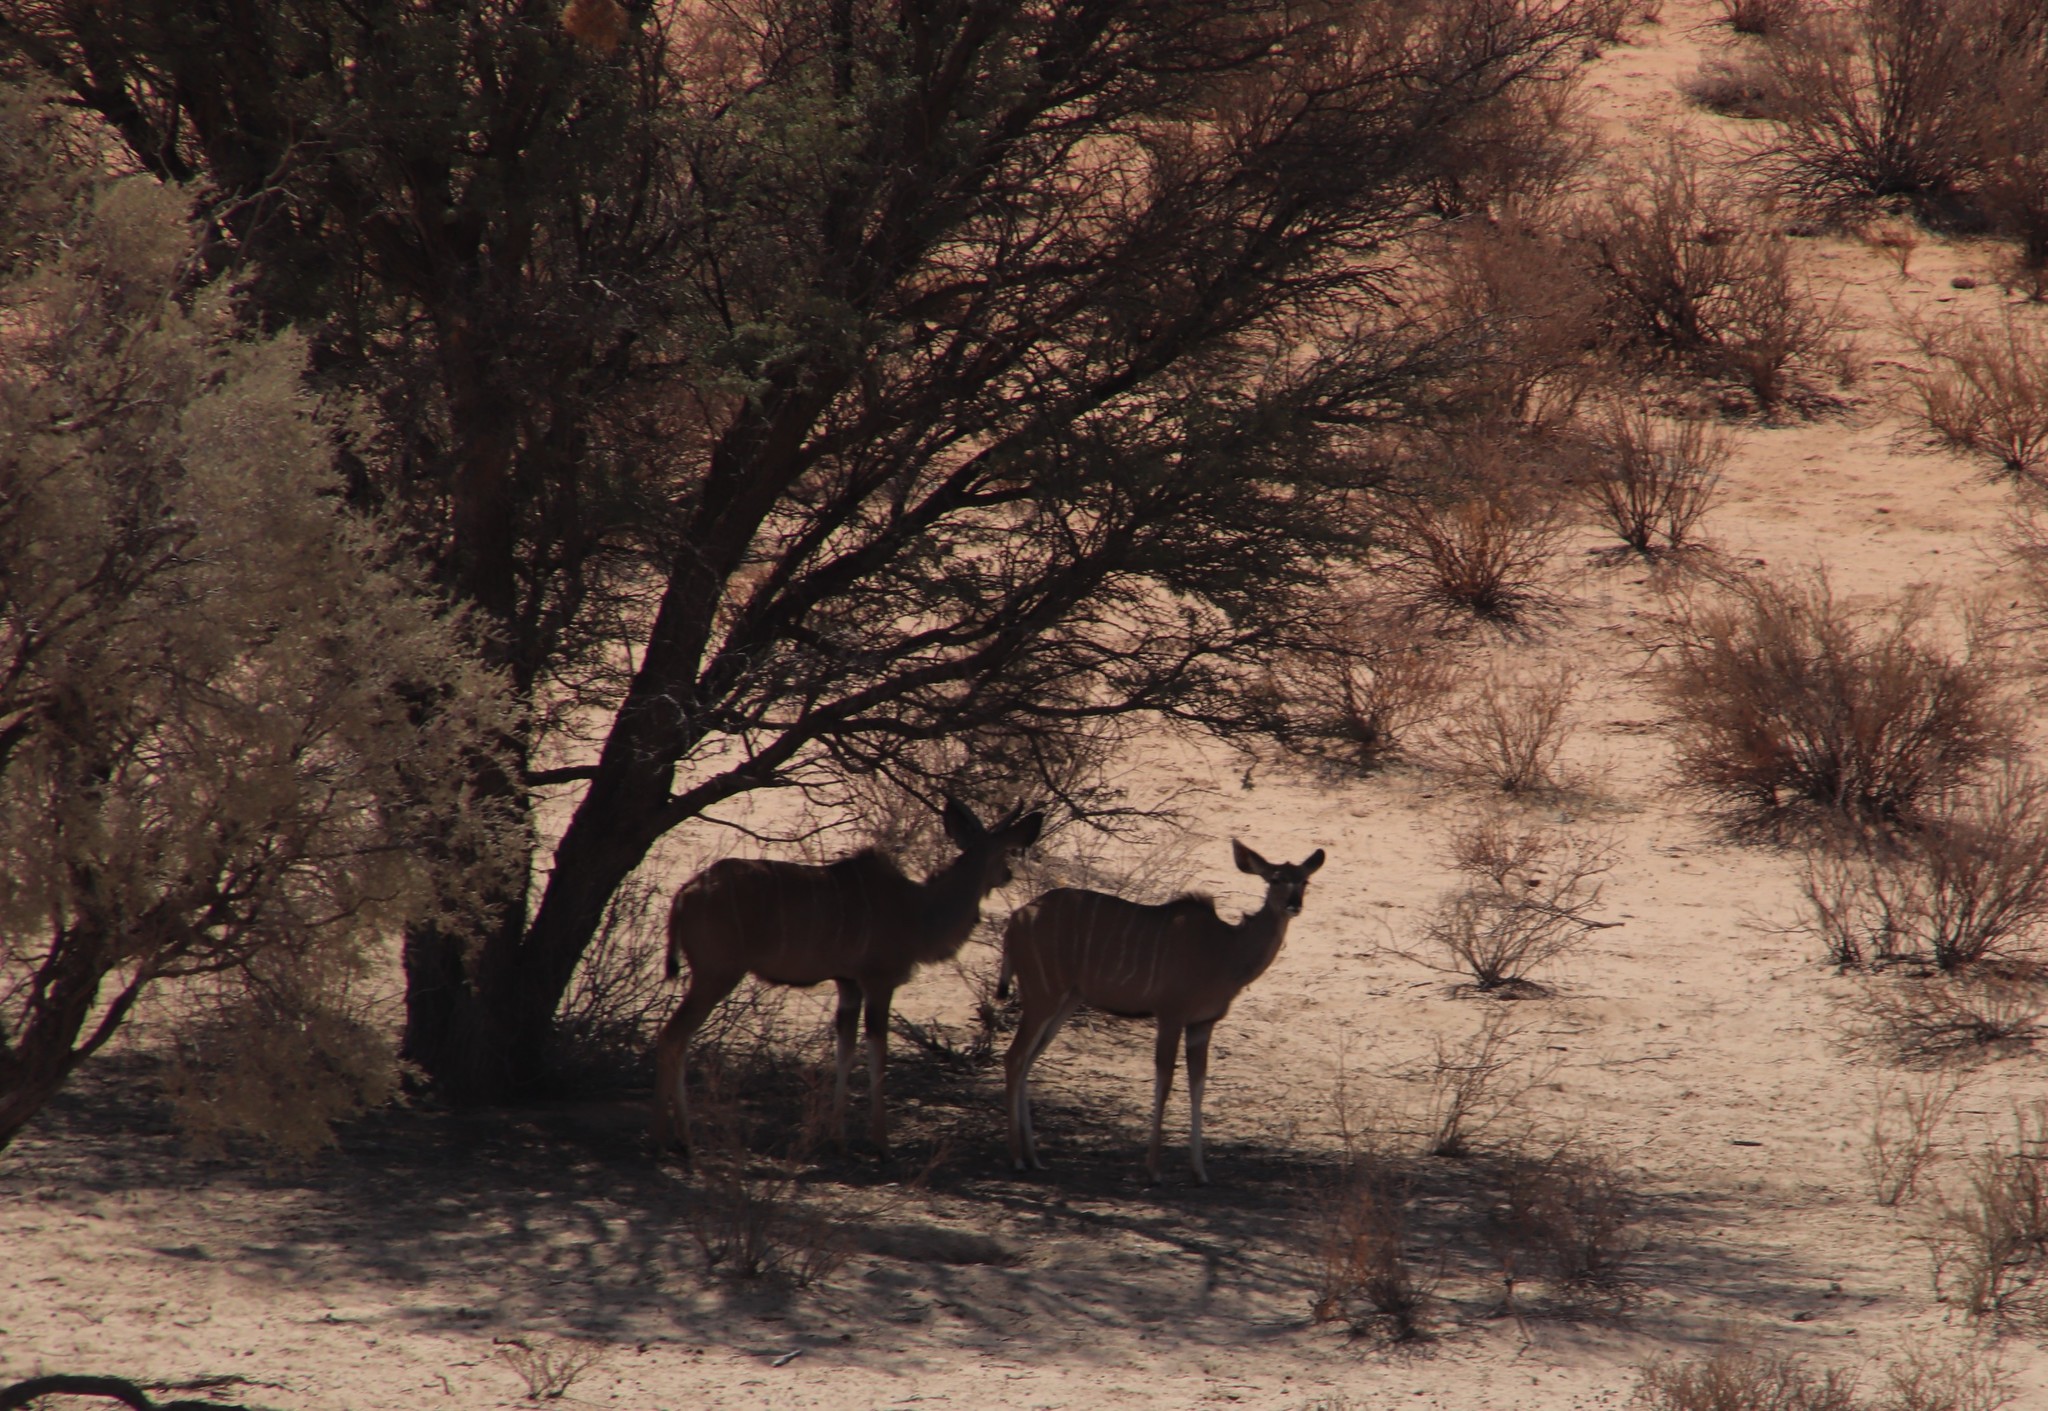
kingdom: Animalia
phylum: Chordata
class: Mammalia
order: Artiodactyla
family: Bovidae
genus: Tragelaphus
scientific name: Tragelaphus strepsiceros
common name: Greater kudu
